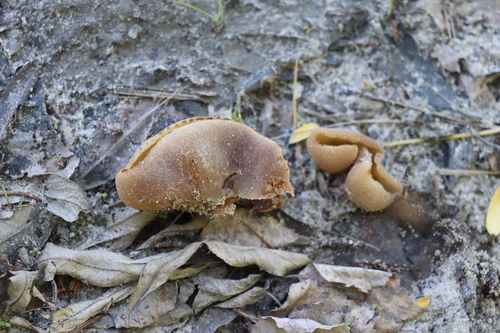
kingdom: Fungi
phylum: Ascomycota
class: Pezizomycetes
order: Pezizales
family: Pezizaceae
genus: Peziza
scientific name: Peziza varia
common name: Layered cup
